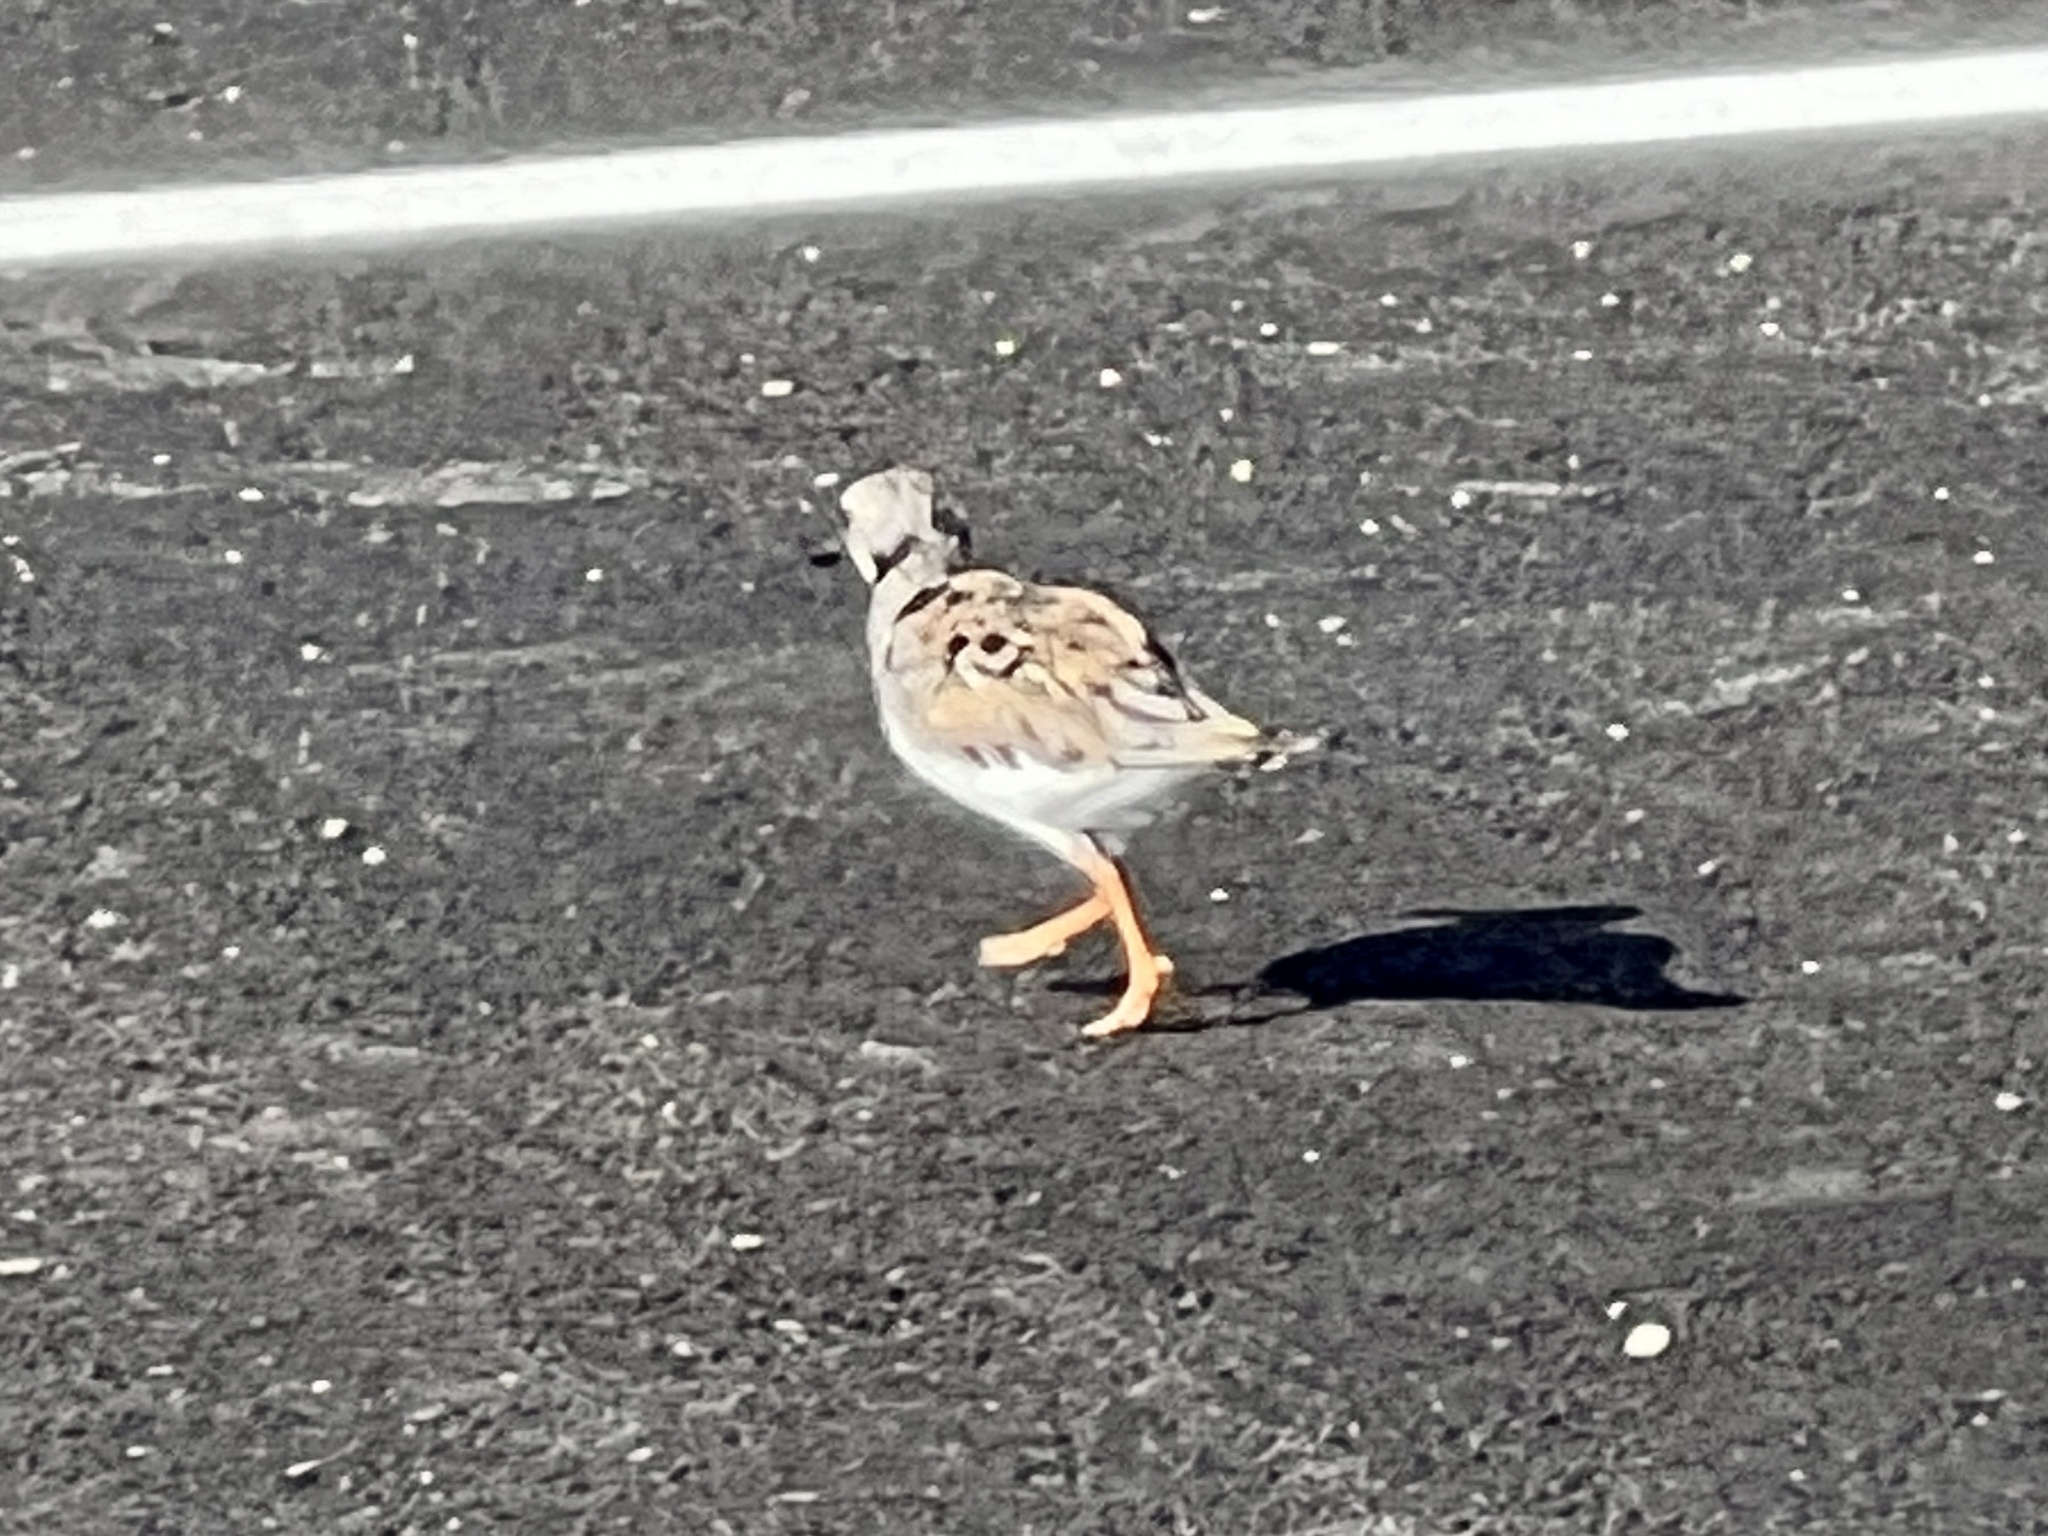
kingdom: Animalia
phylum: Chordata
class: Aves
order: Charadriiformes
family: Scolopacidae
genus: Arenaria
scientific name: Arenaria interpres
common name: Ruddy turnstone
